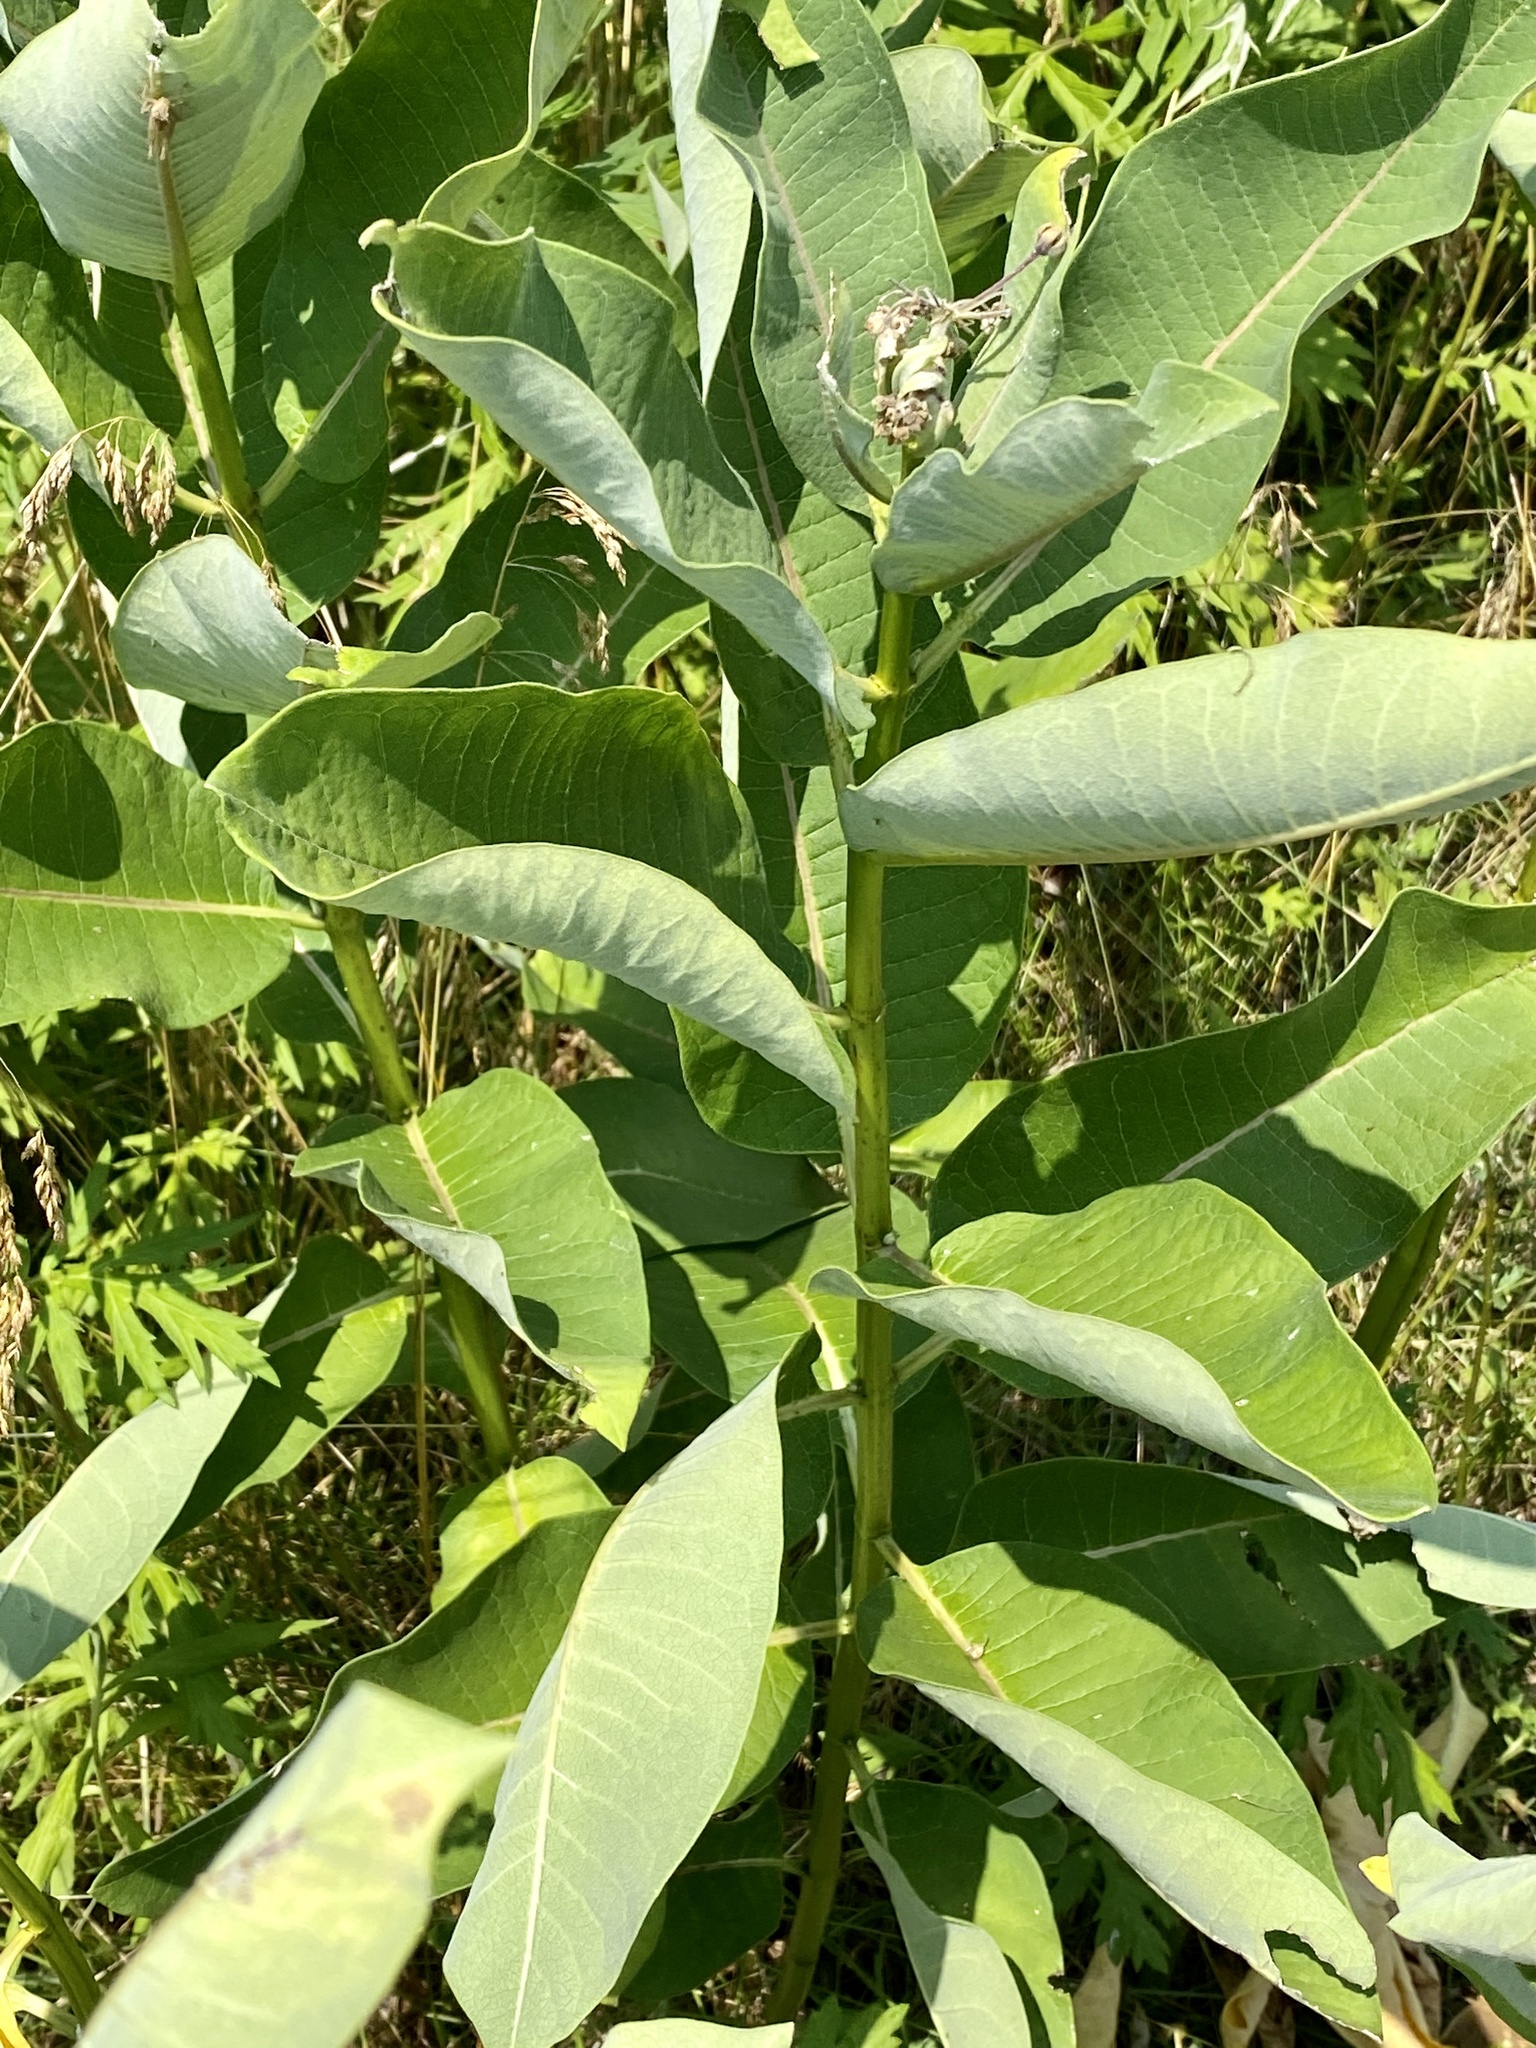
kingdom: Plantae
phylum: Tracheophyta
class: Magnoliopsida
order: Gentianales
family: Apocynaceae
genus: Asclepias
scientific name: Asclepias syriaca
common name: Common milkweed
